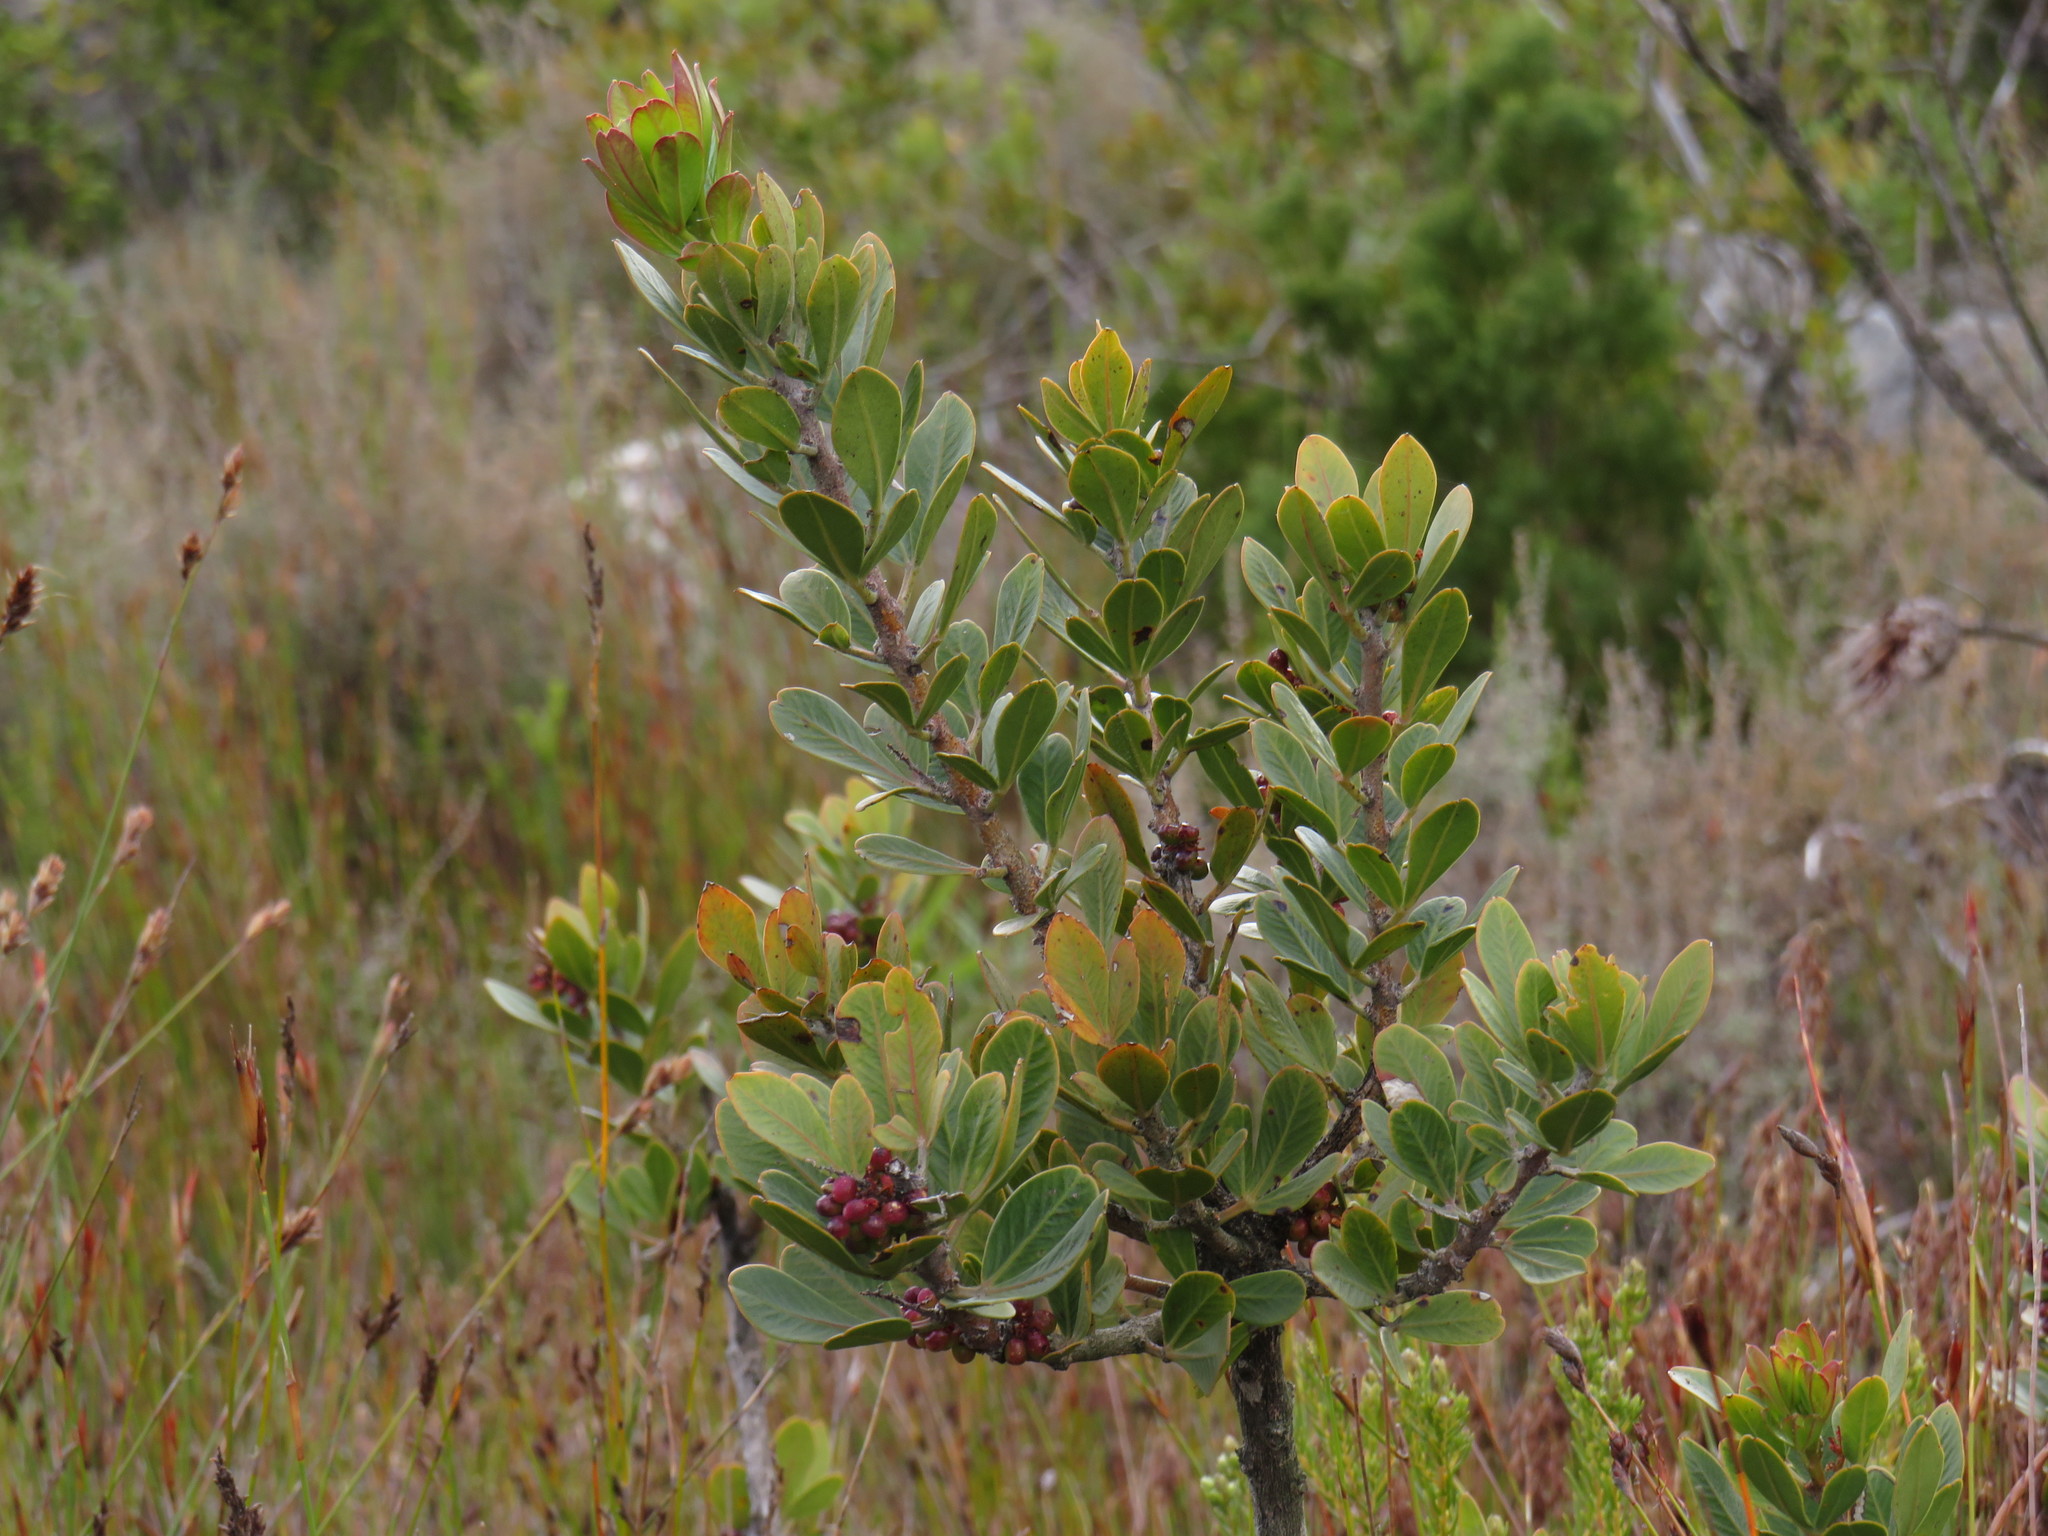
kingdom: Plantae
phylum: Tracheophyta
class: Magnoliopsida
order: Sapindales
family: Anacardiaceae
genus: Searsia
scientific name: Searsia scytophylla
